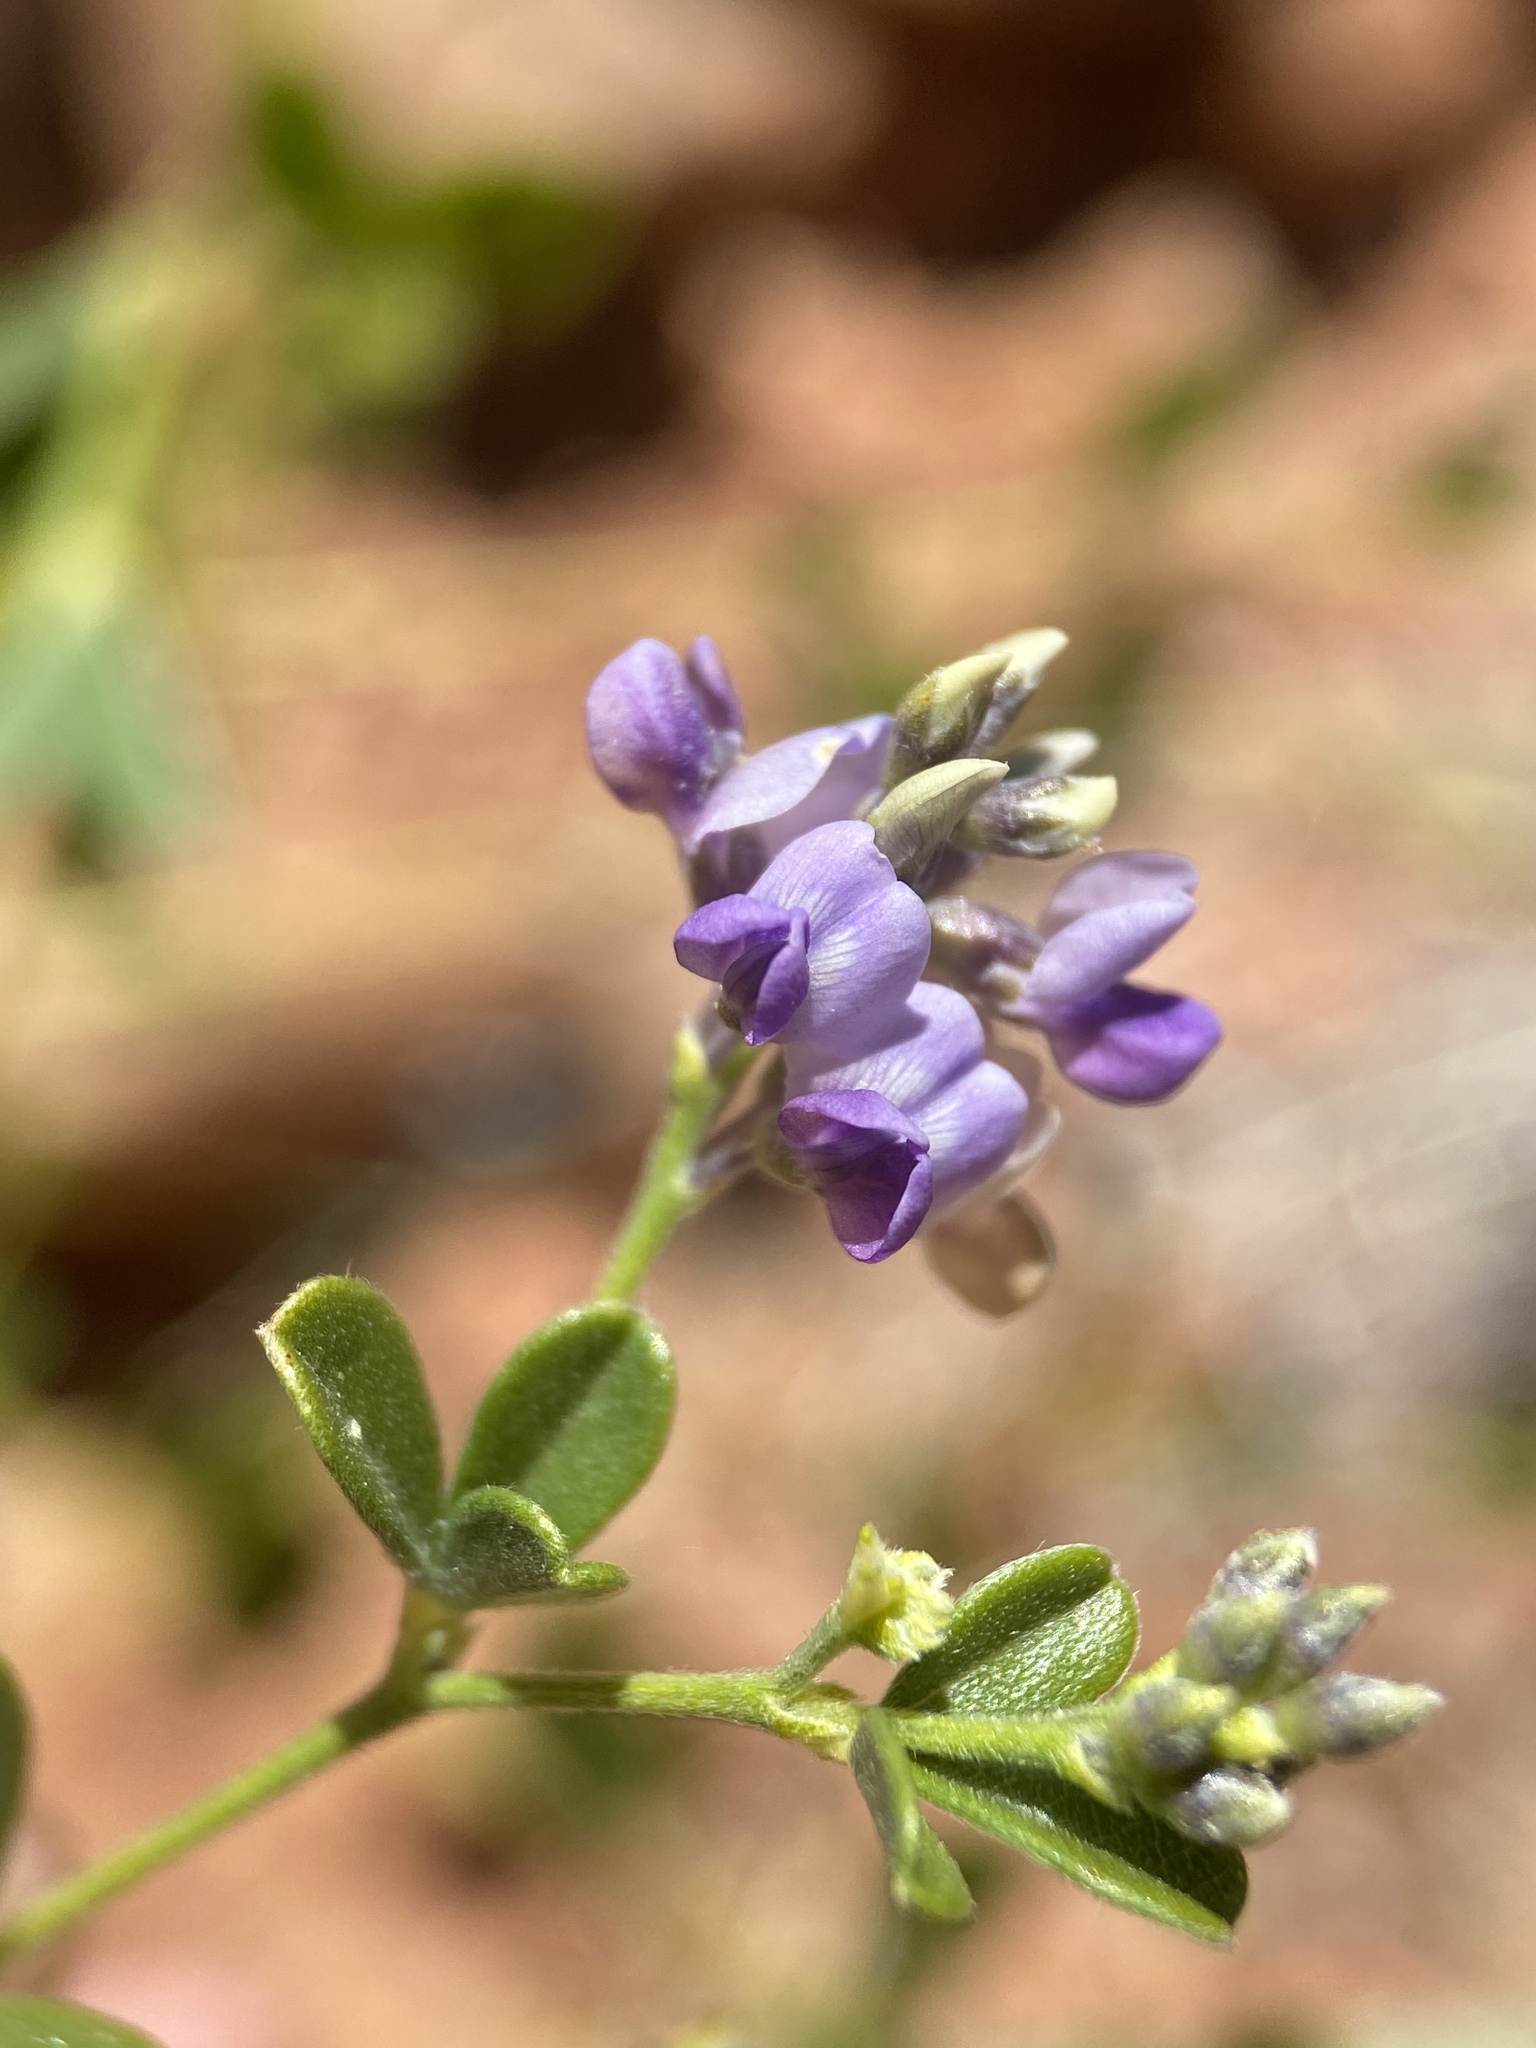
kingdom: Plantae
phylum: Tracheophyta
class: Magnoliopsida
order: Fabales
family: Fabaceae
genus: Pediomelum
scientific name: Pediomelum tenuiflorum
